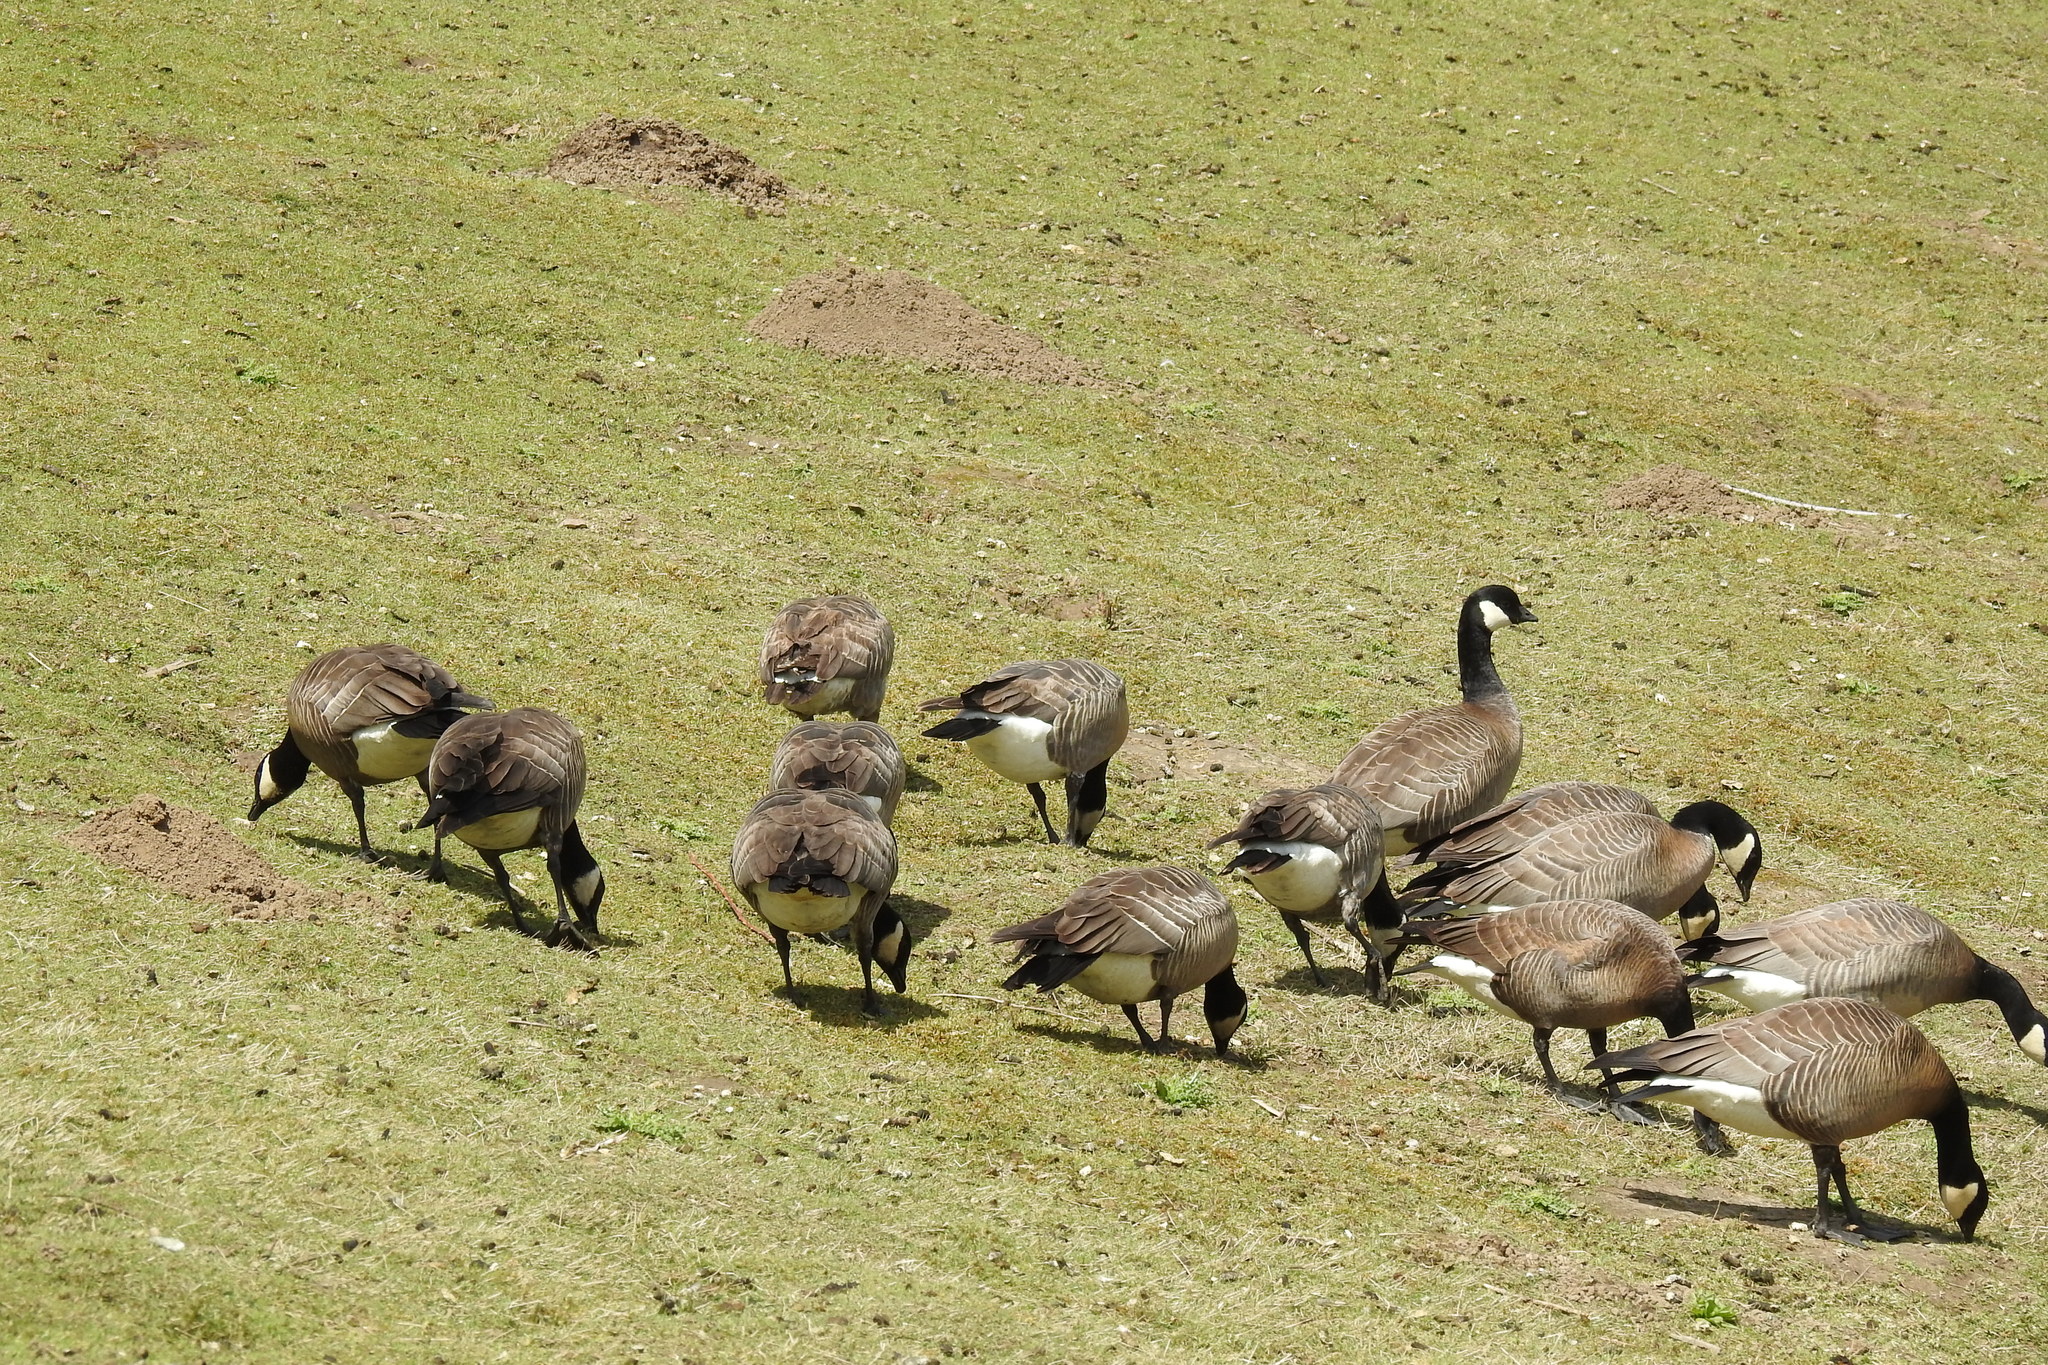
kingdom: Animalia
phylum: Chordata
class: Aves
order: Anseriformes
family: Anatidae
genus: Branta
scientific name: Branta hutchinsii
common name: Cackling goose
